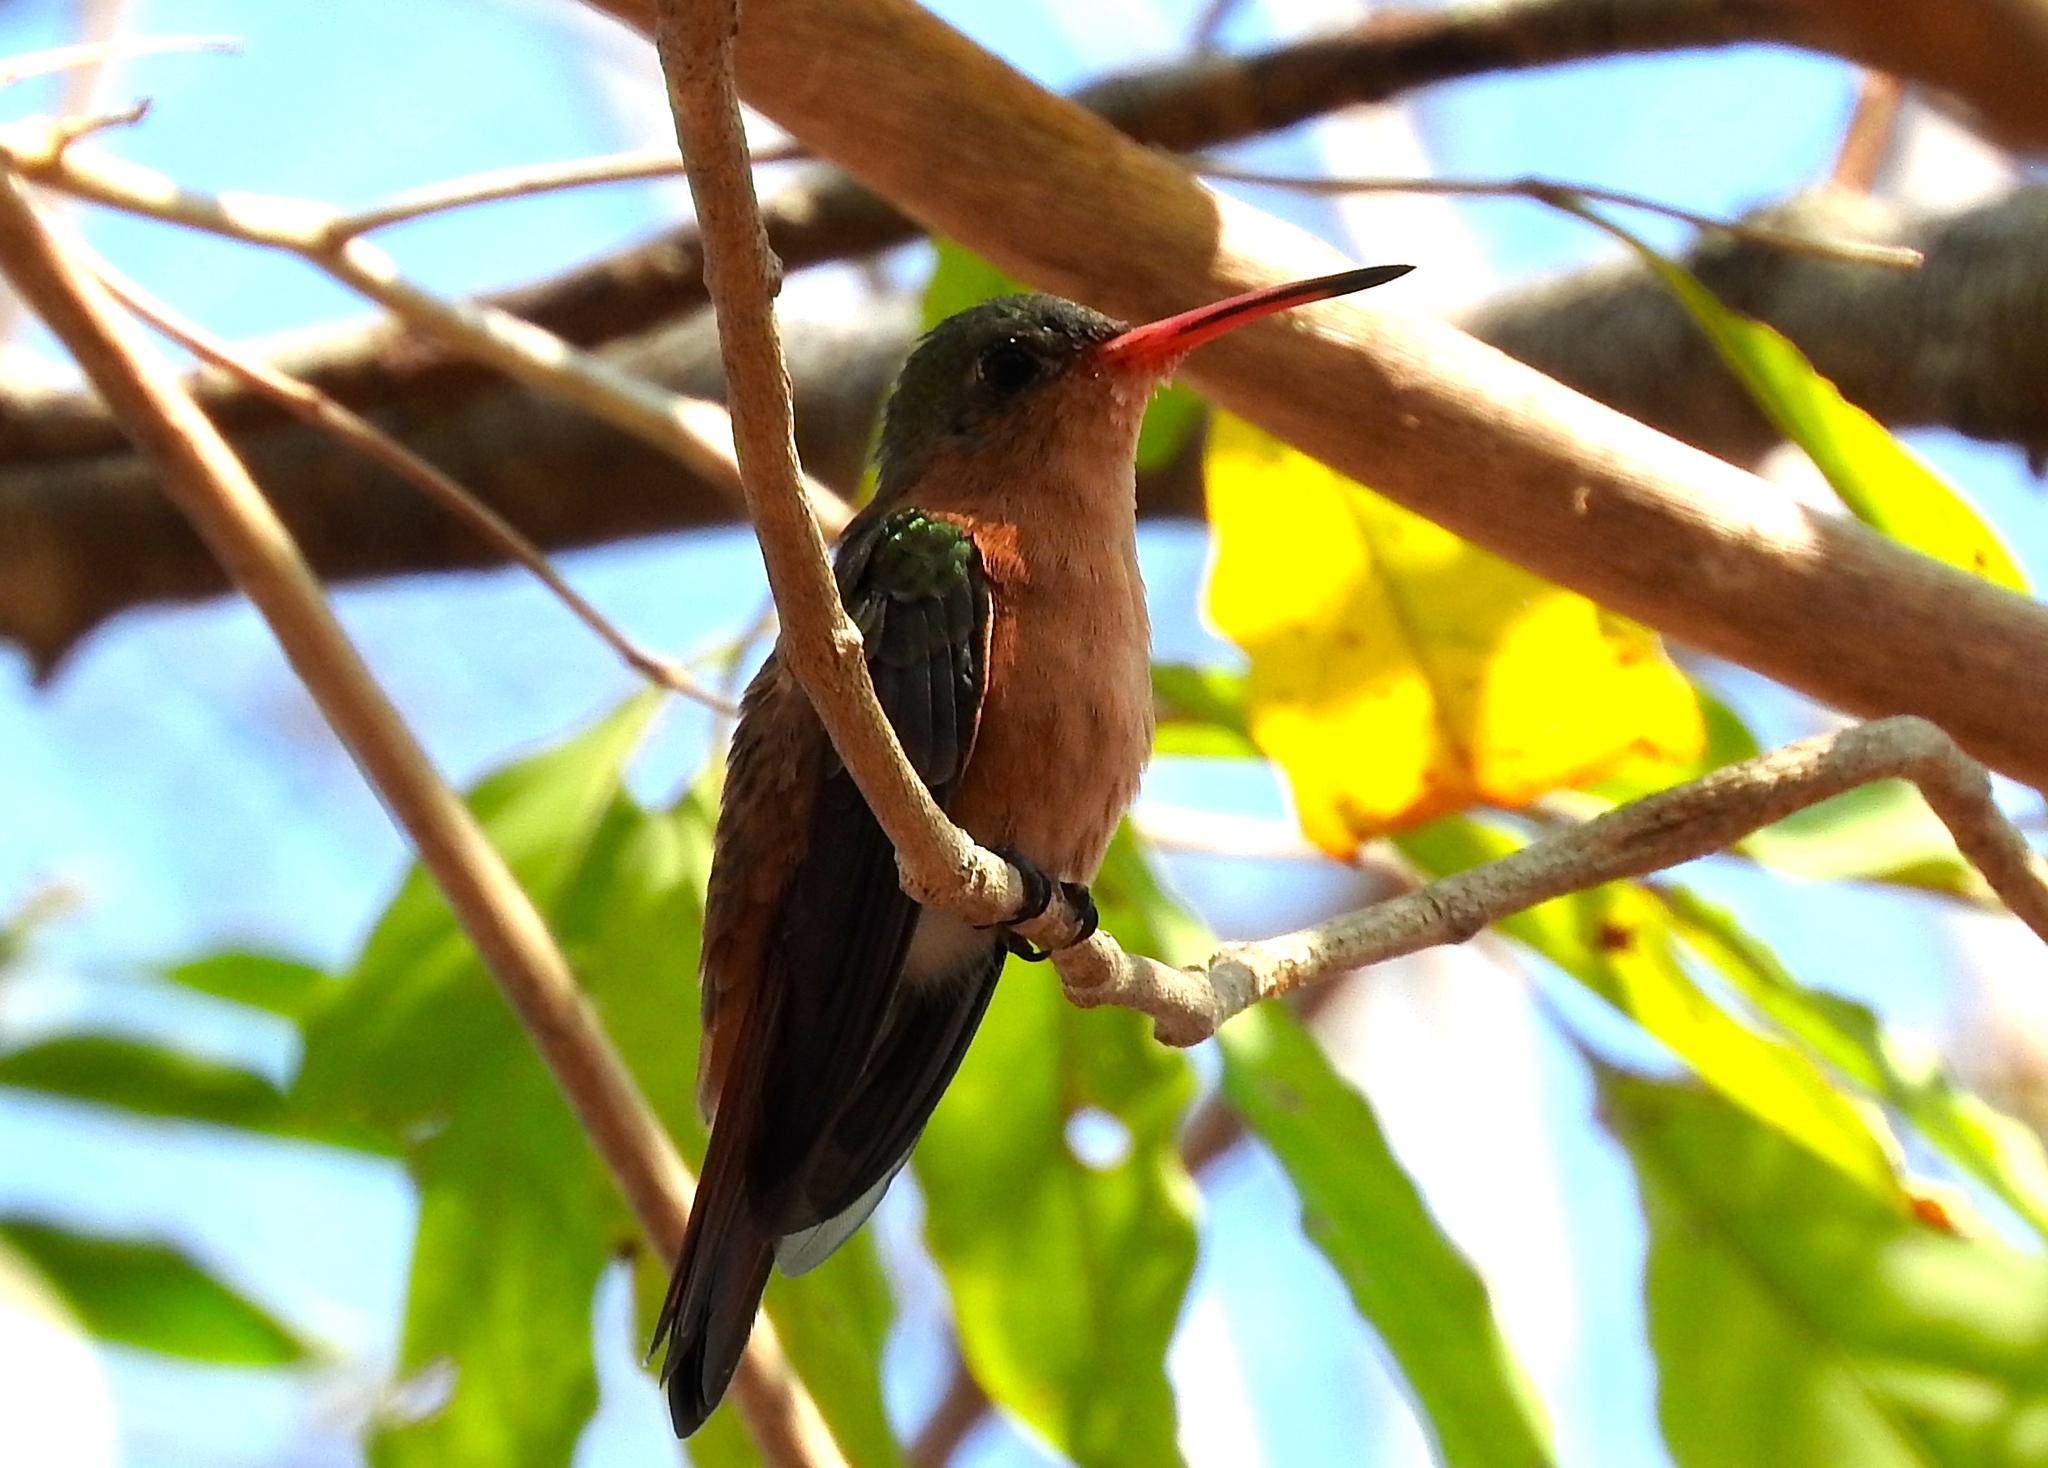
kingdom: Animalia
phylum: Chordata
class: Aves
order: Apodiformes
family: Trochilidae
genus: Amazilia
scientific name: Amazilia rutila
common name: Cinnamon hummingbird
